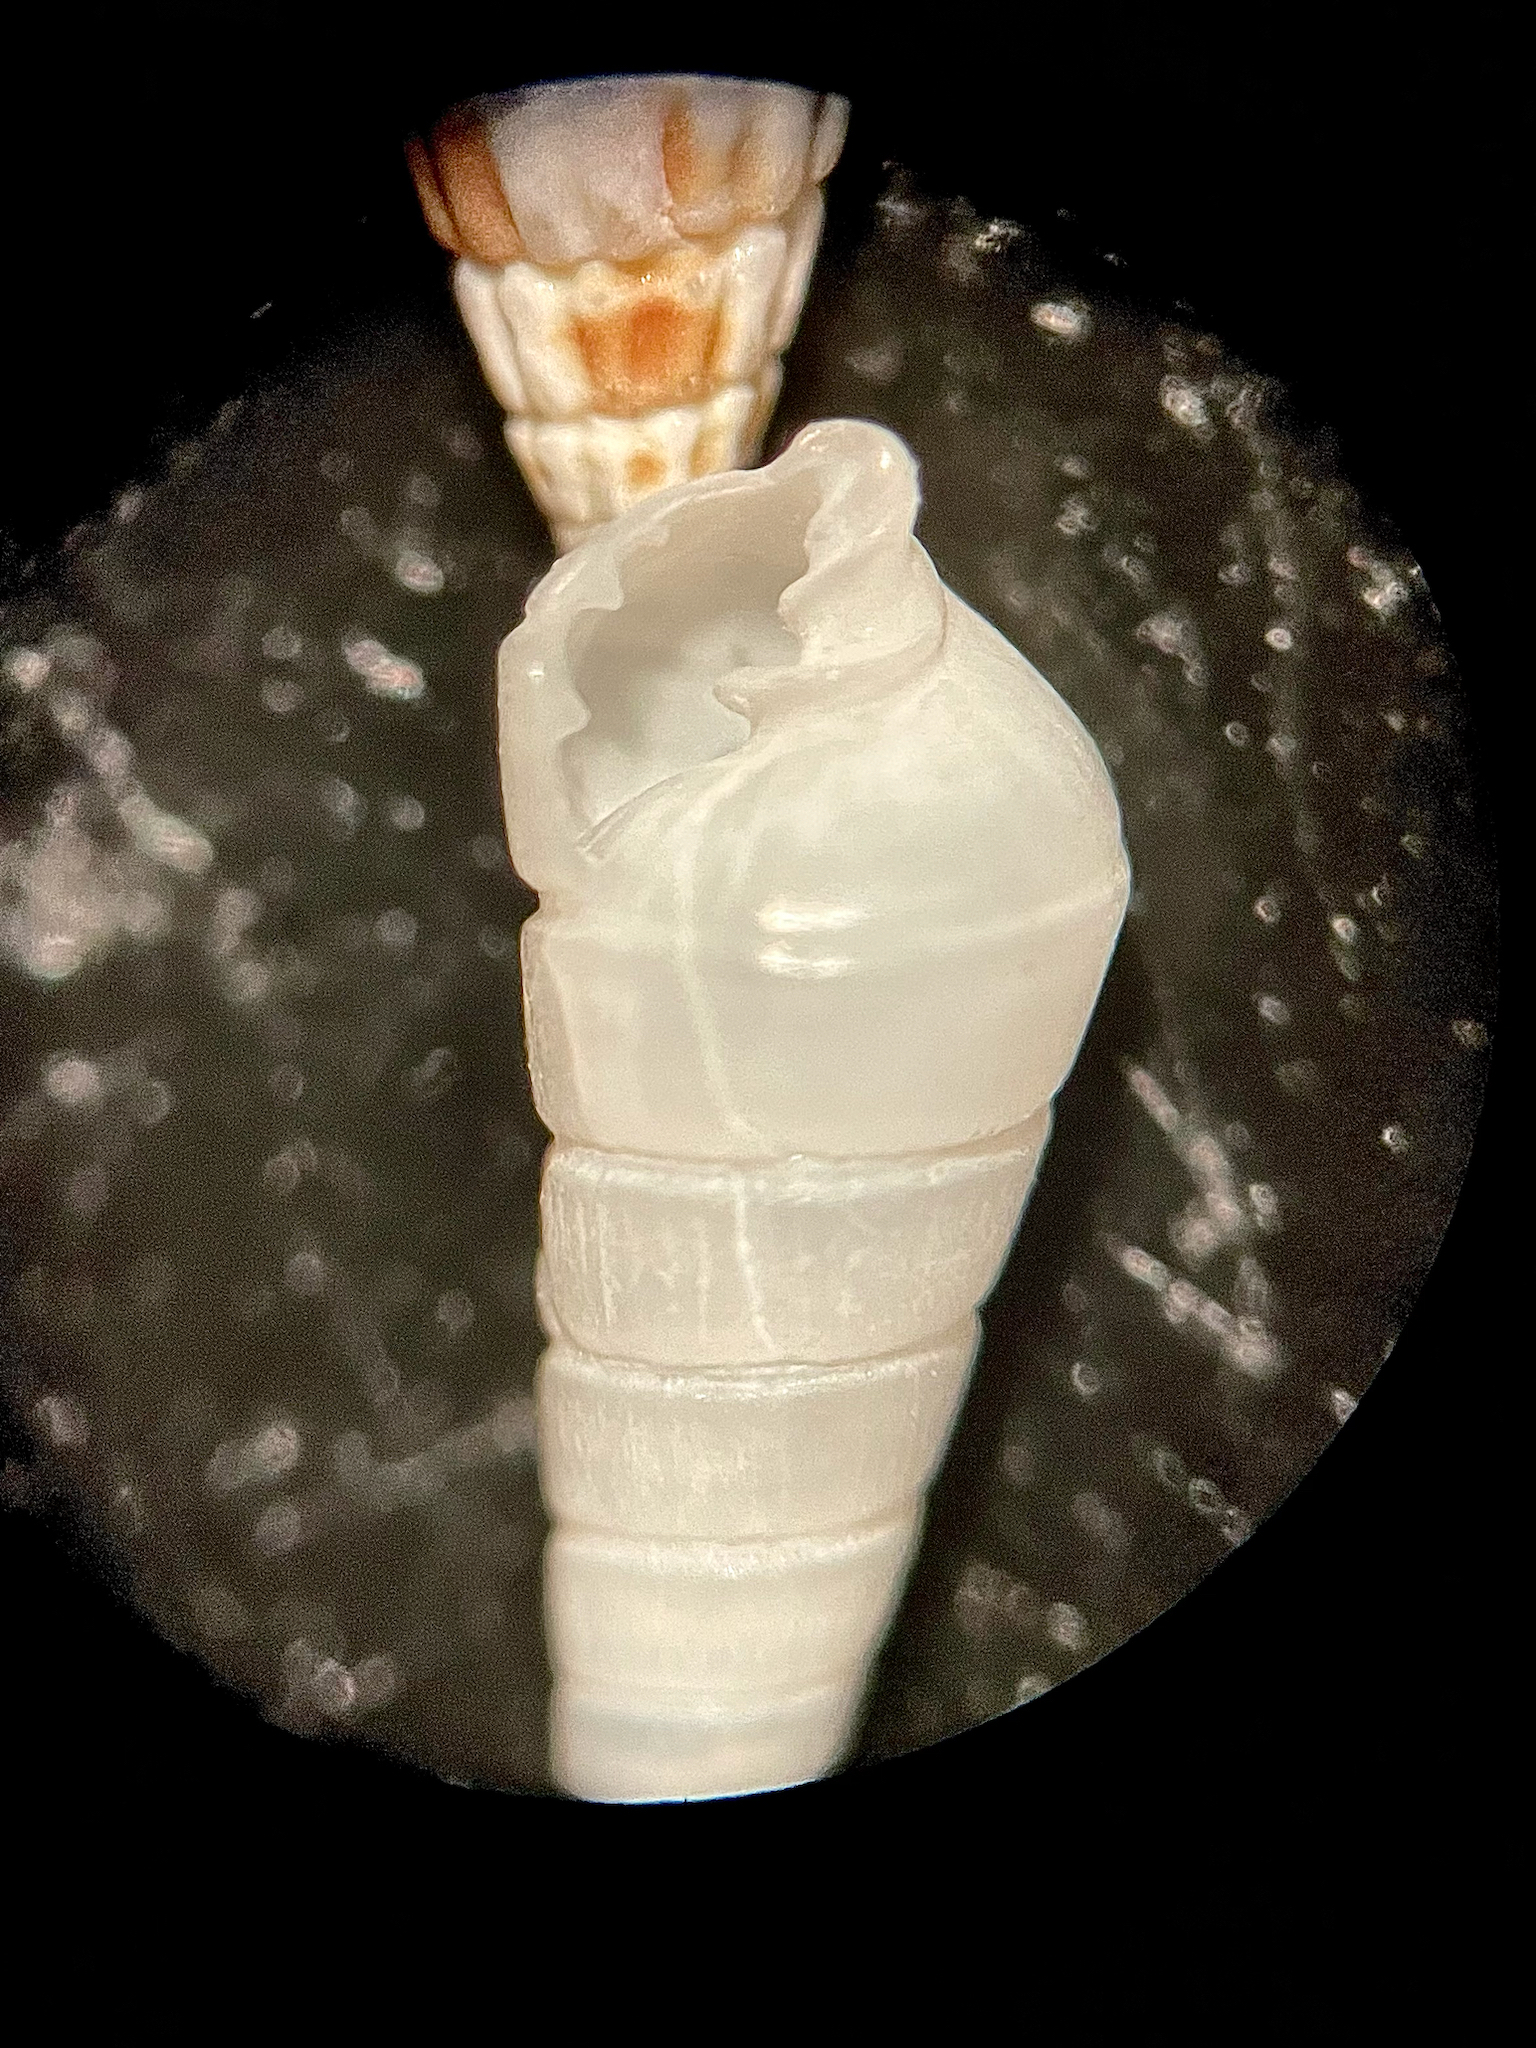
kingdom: Animalia
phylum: Mollusca
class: Gastropoda
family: Pyramidellidae
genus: Longchaeus
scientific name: Longchaeus suturalis
